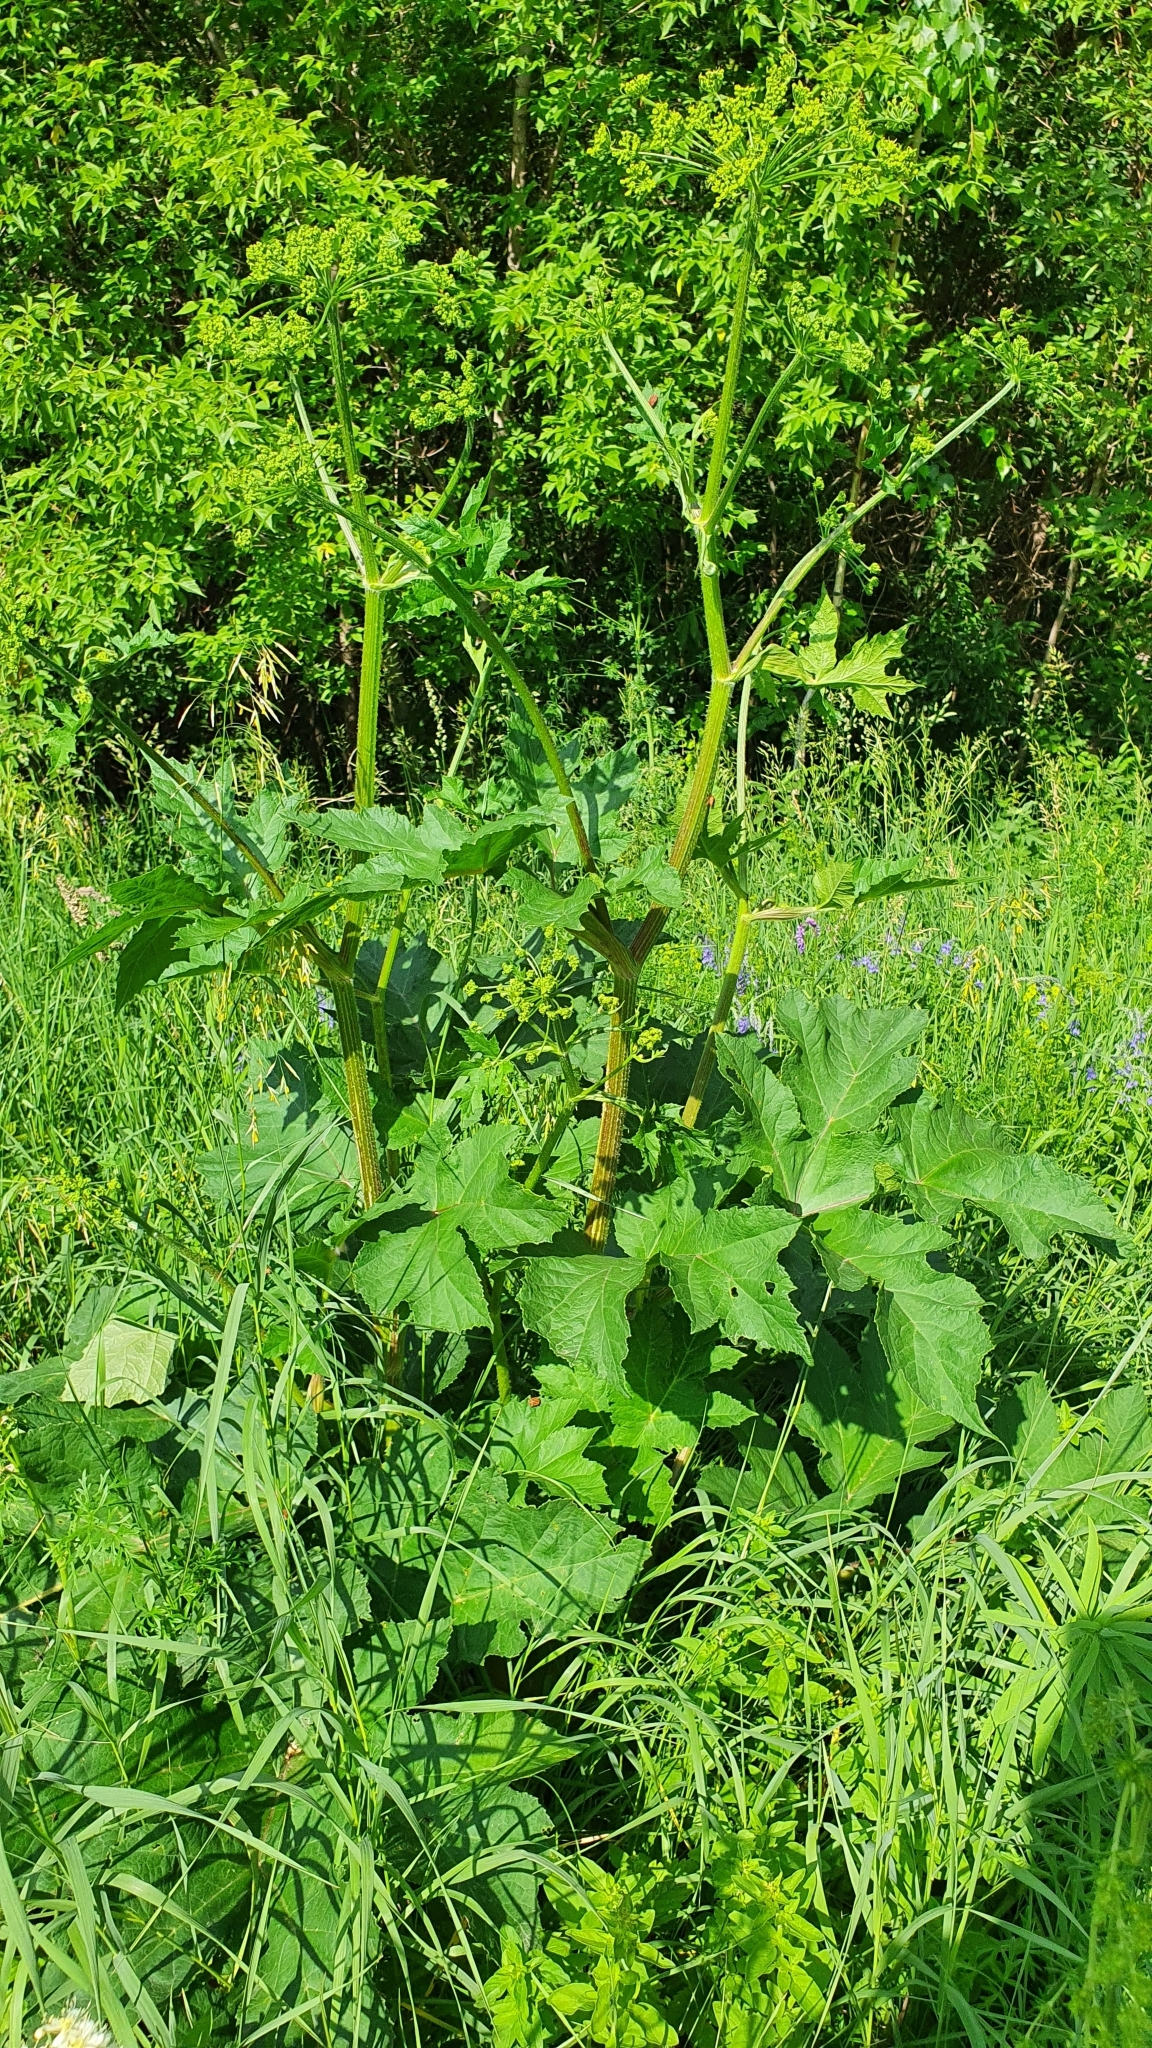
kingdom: Plantae
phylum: Tracheophyta
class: Magnoliopsida
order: Apiales
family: Apiaceae
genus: Heracleum
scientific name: Heracleum sphondylium
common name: Hogweed
